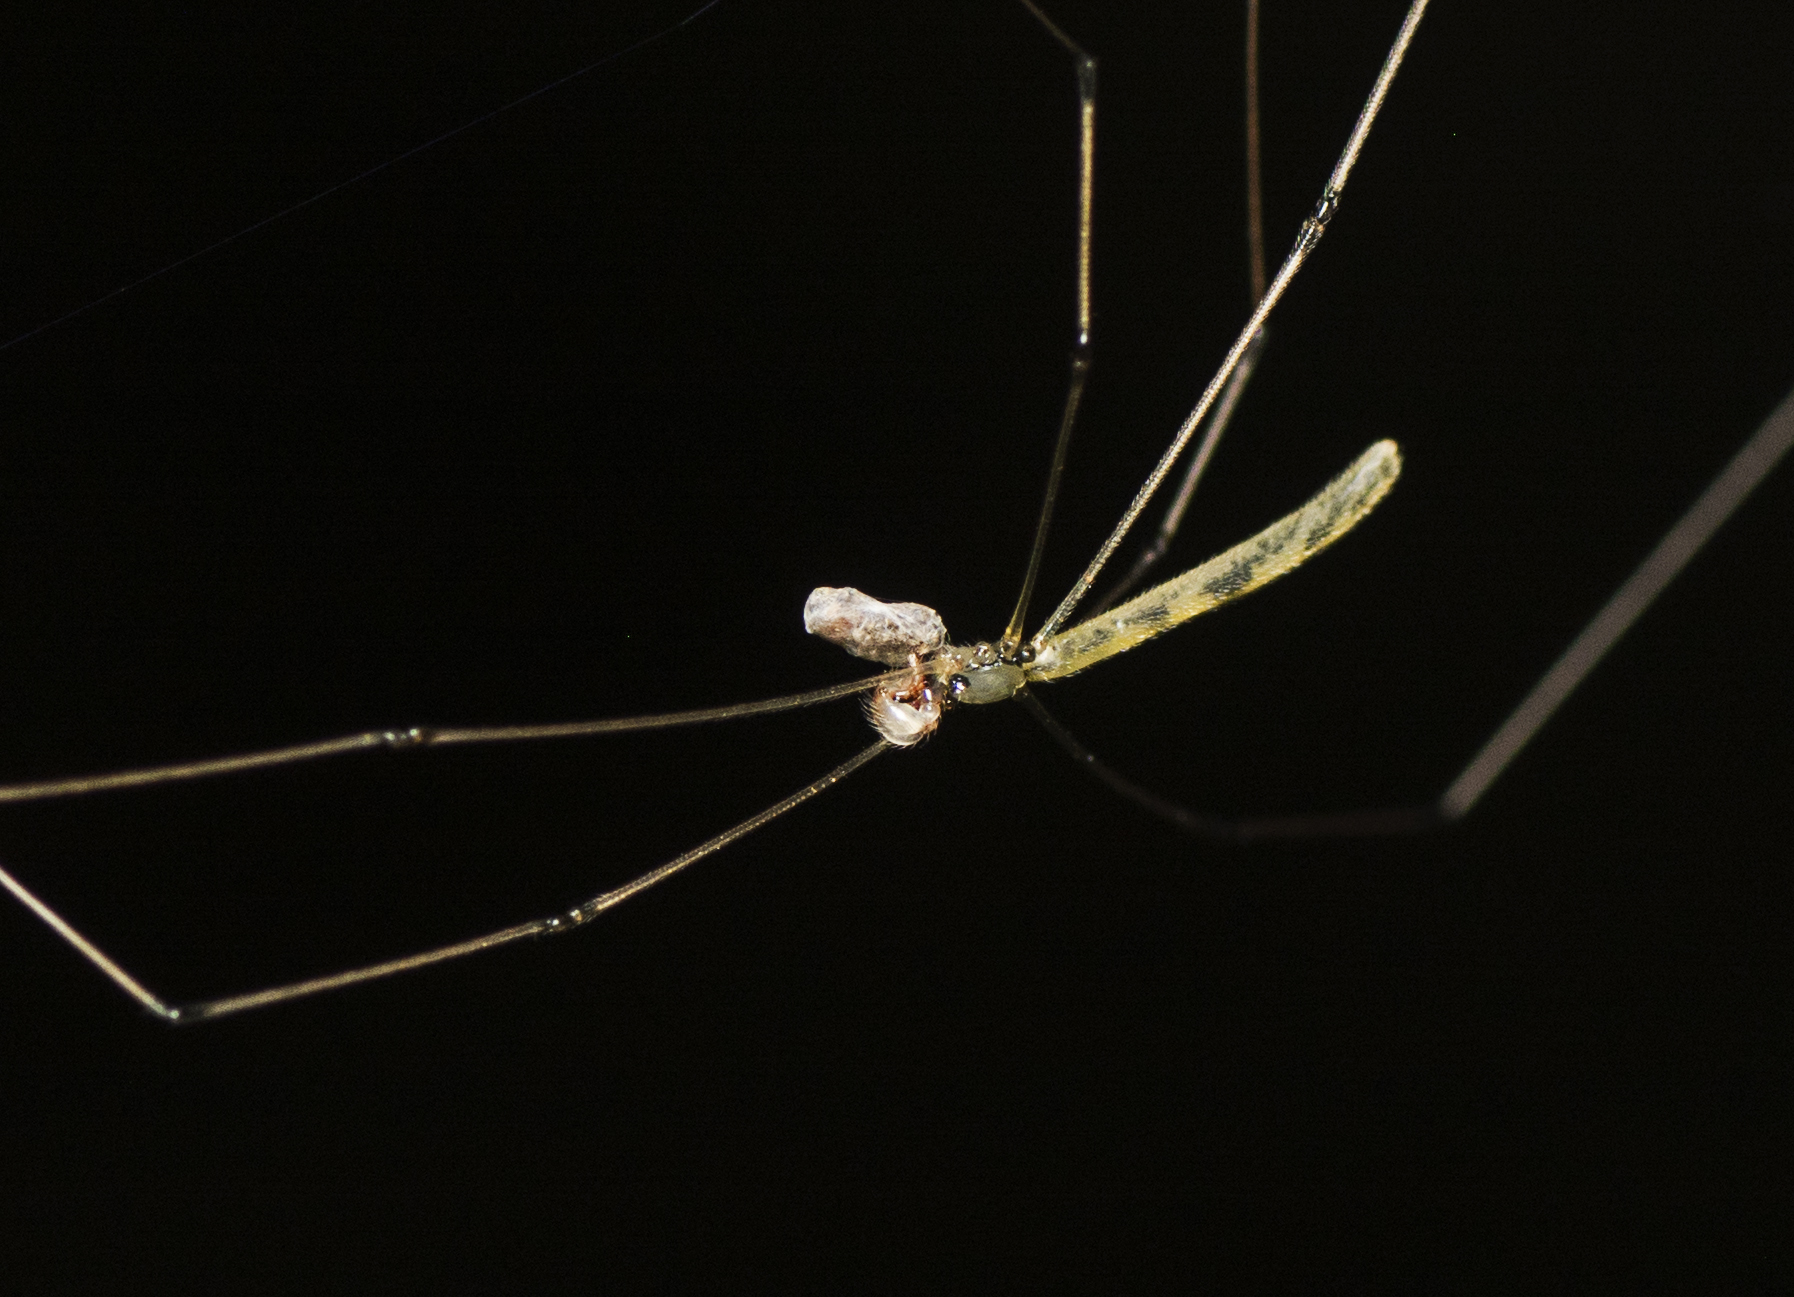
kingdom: Animalia
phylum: Arthropoda
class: Arachnida
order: Araneae
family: Pholcidae
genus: Micromerys
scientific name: Micromerys raveni
